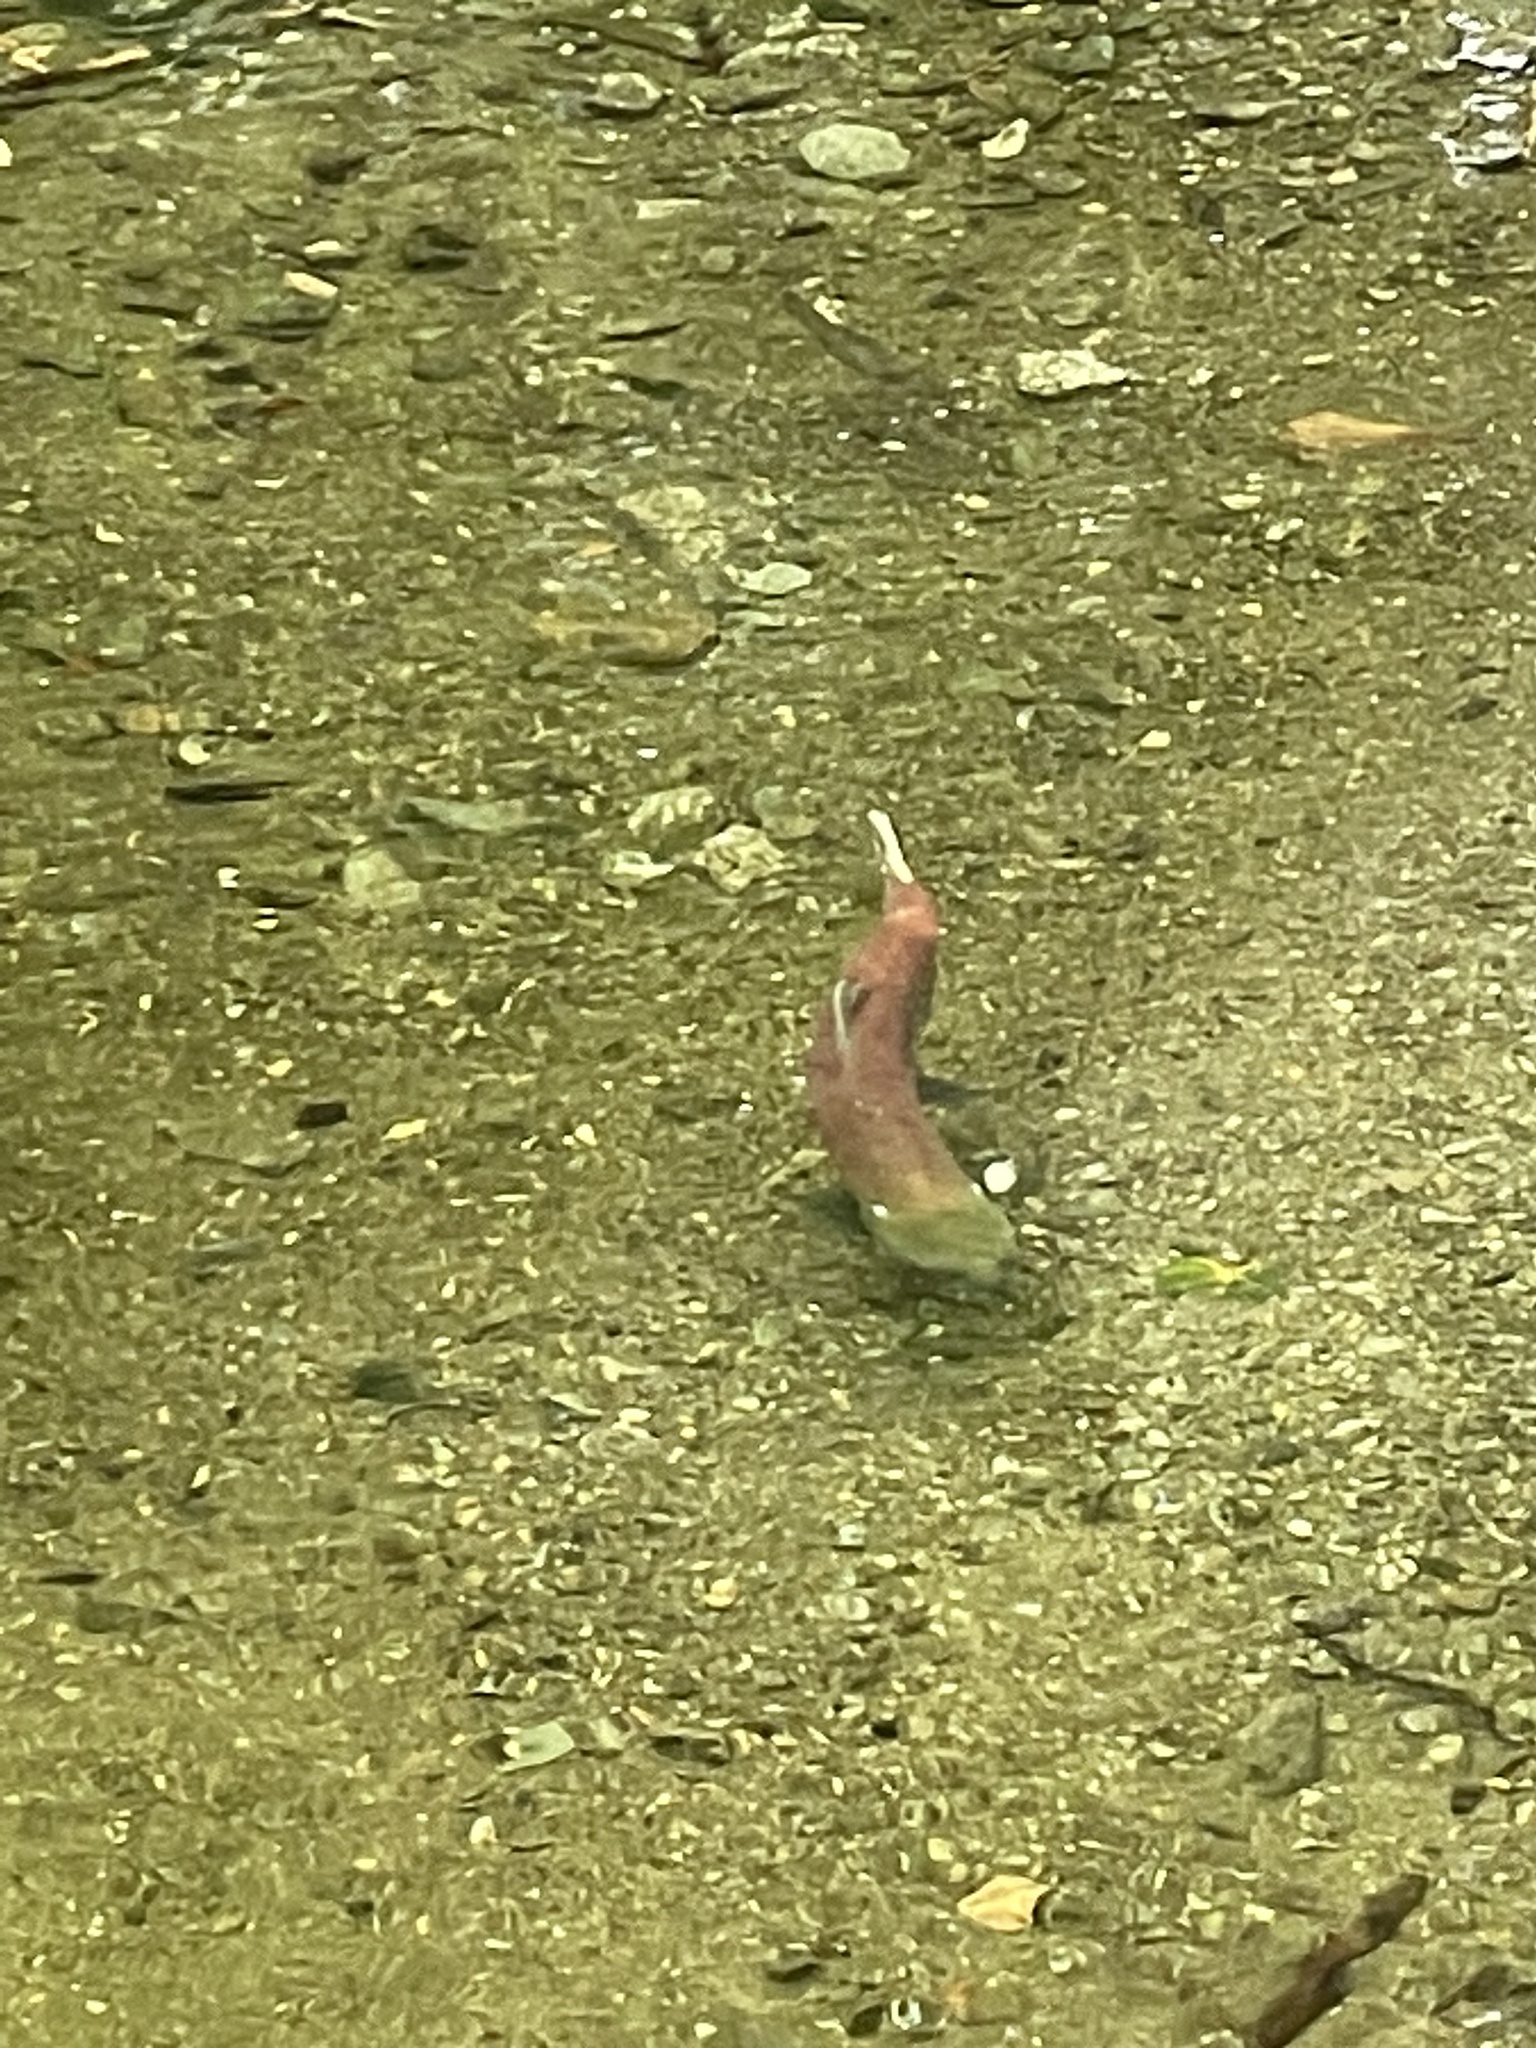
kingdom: Animalia
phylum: Chordata
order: Salmoniformes
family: Salmonidae
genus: Oncorhynchus
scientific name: Oncorhynchus nerka
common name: Sockeye salmon
